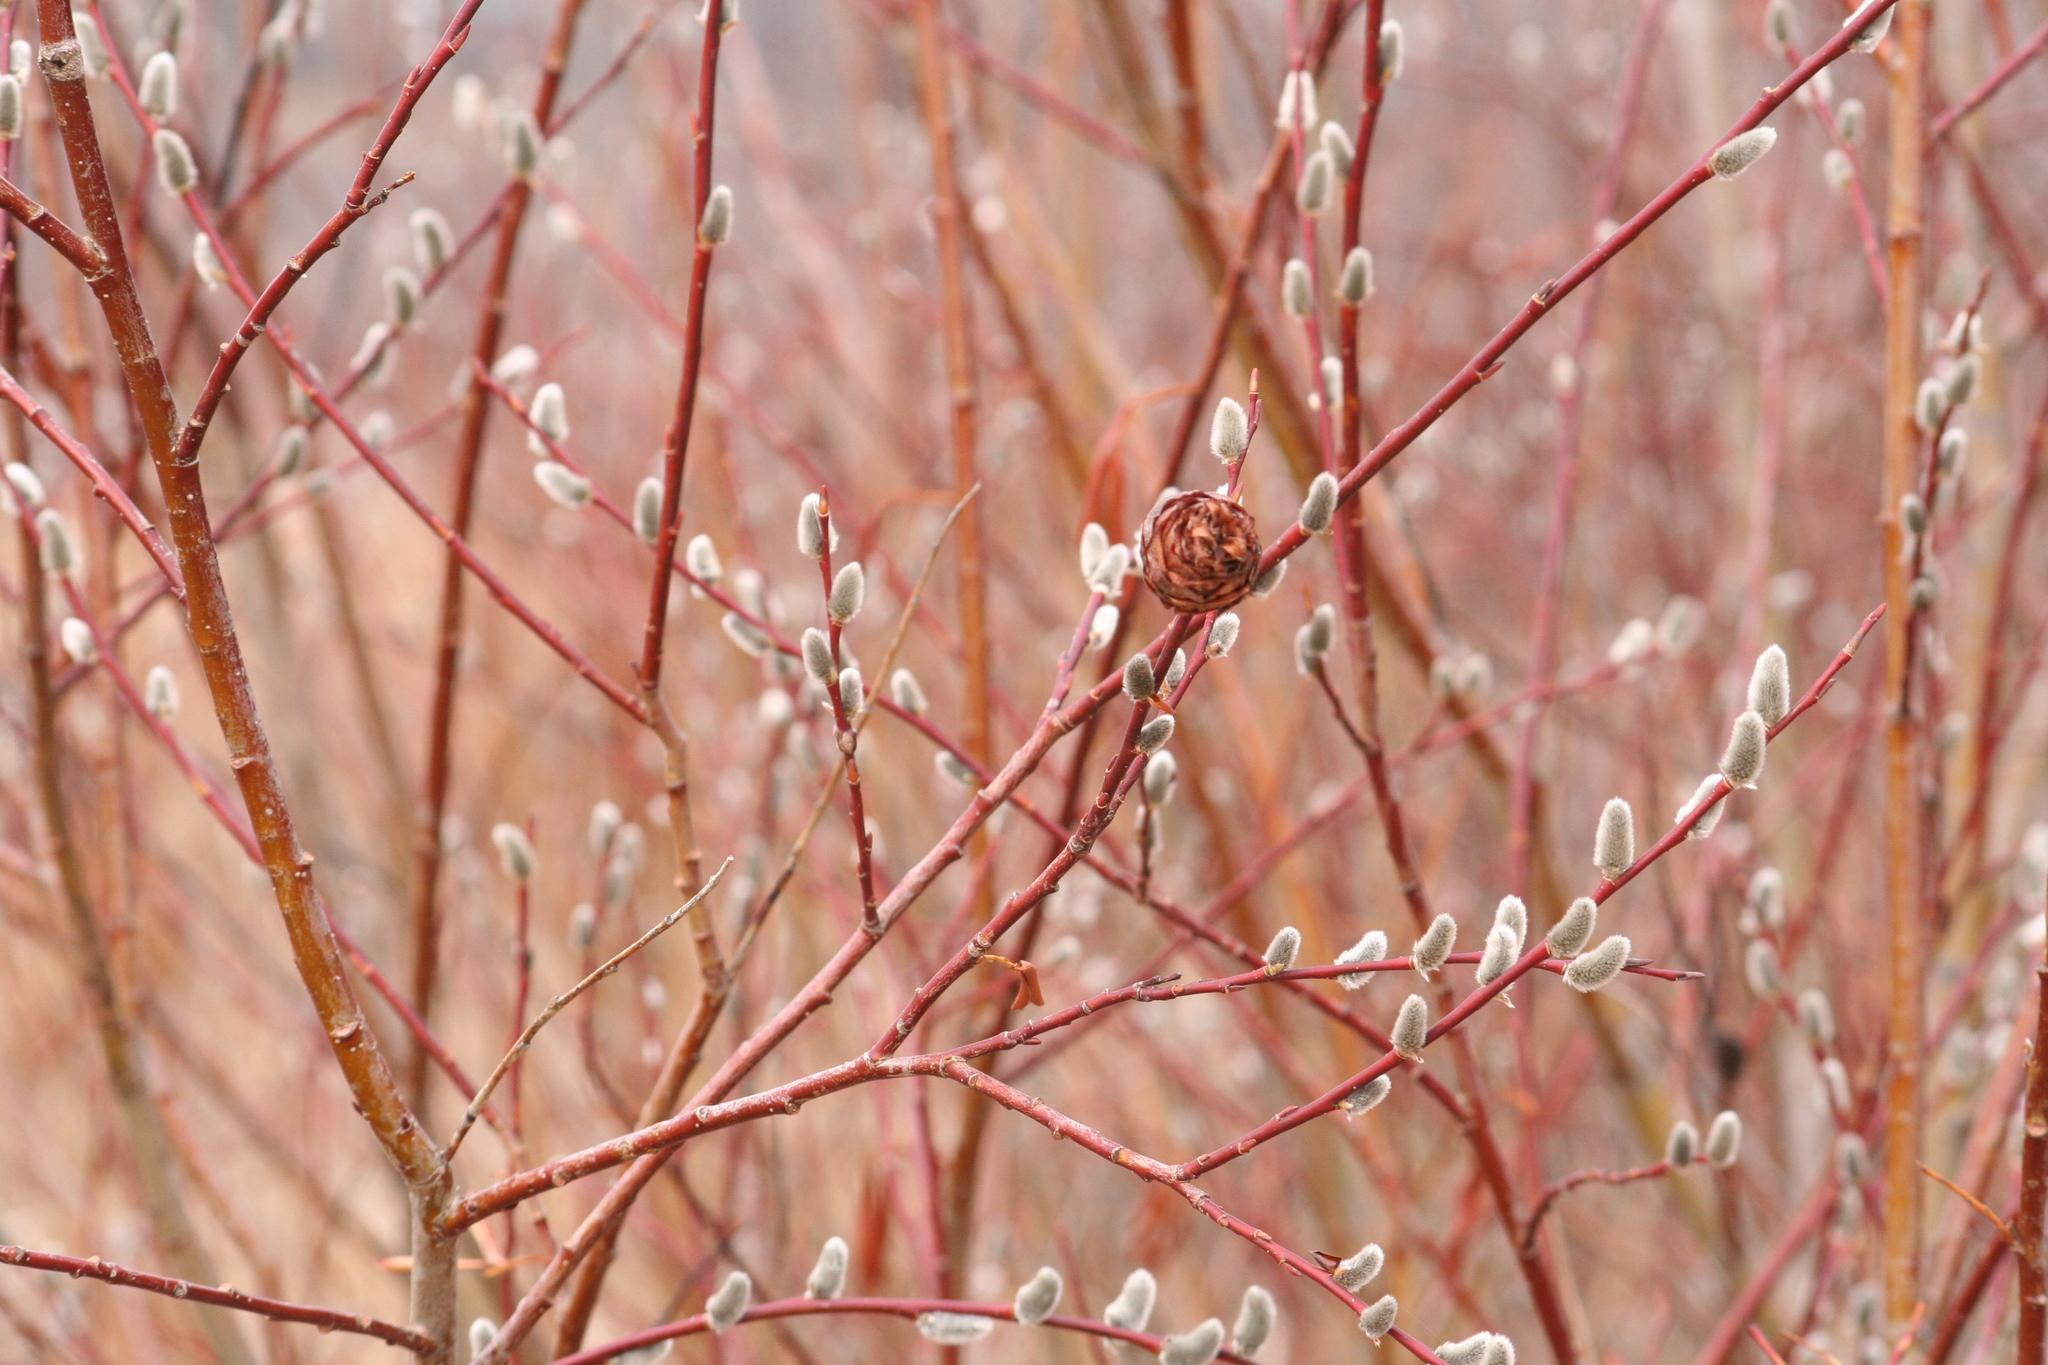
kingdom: Animalia
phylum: Arthropoda
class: Insecta
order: Diptera
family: Cecidomyiidae
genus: Rabdophaga
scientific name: Rabdophaga strobiloides
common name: Willow pinecone gall midge
